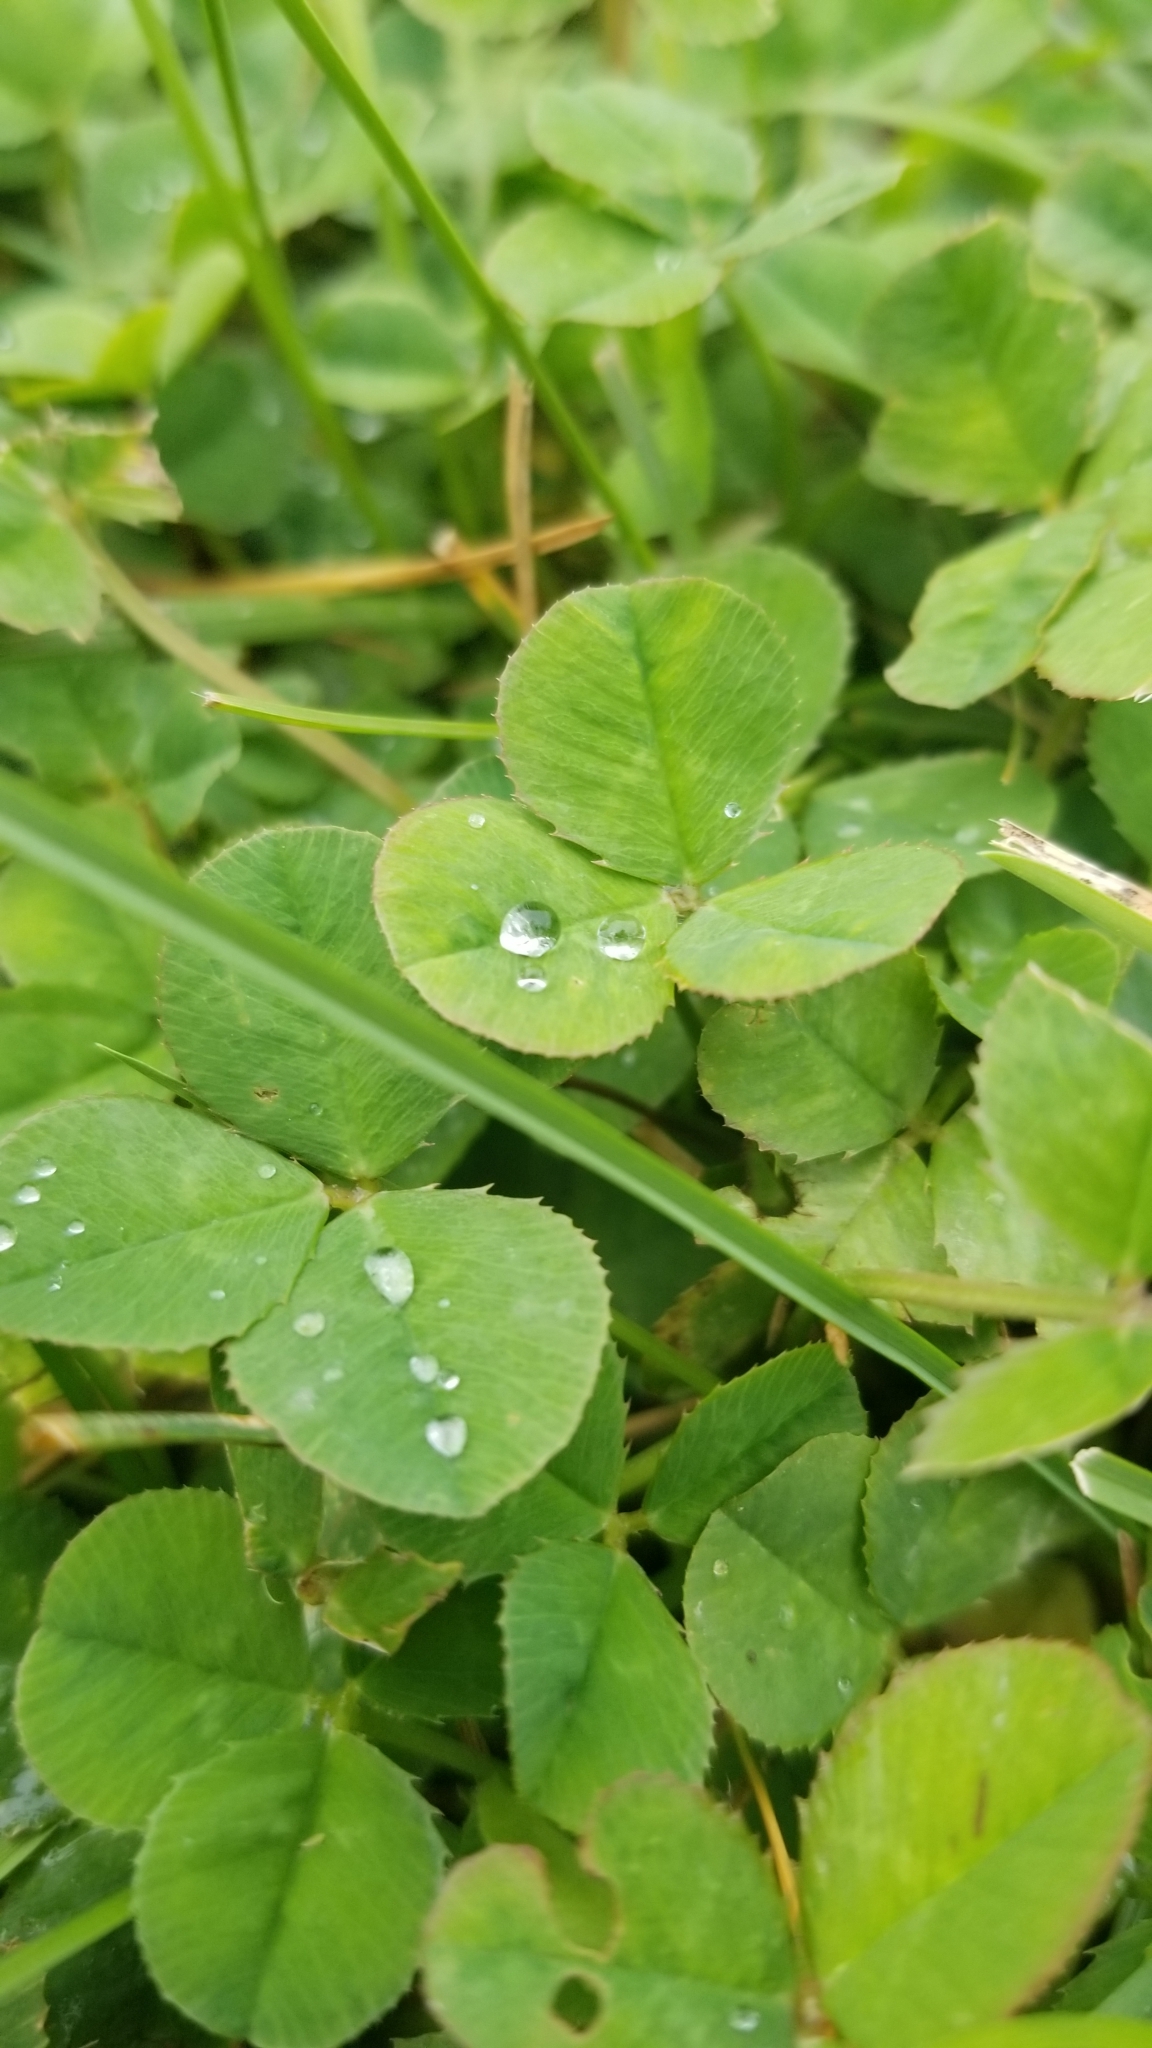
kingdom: Plantae
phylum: Tracheophyta
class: Magnoliopsida
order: Fabales
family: Fabaceae
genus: Trifolium
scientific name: Trifolium repens
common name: White clover
